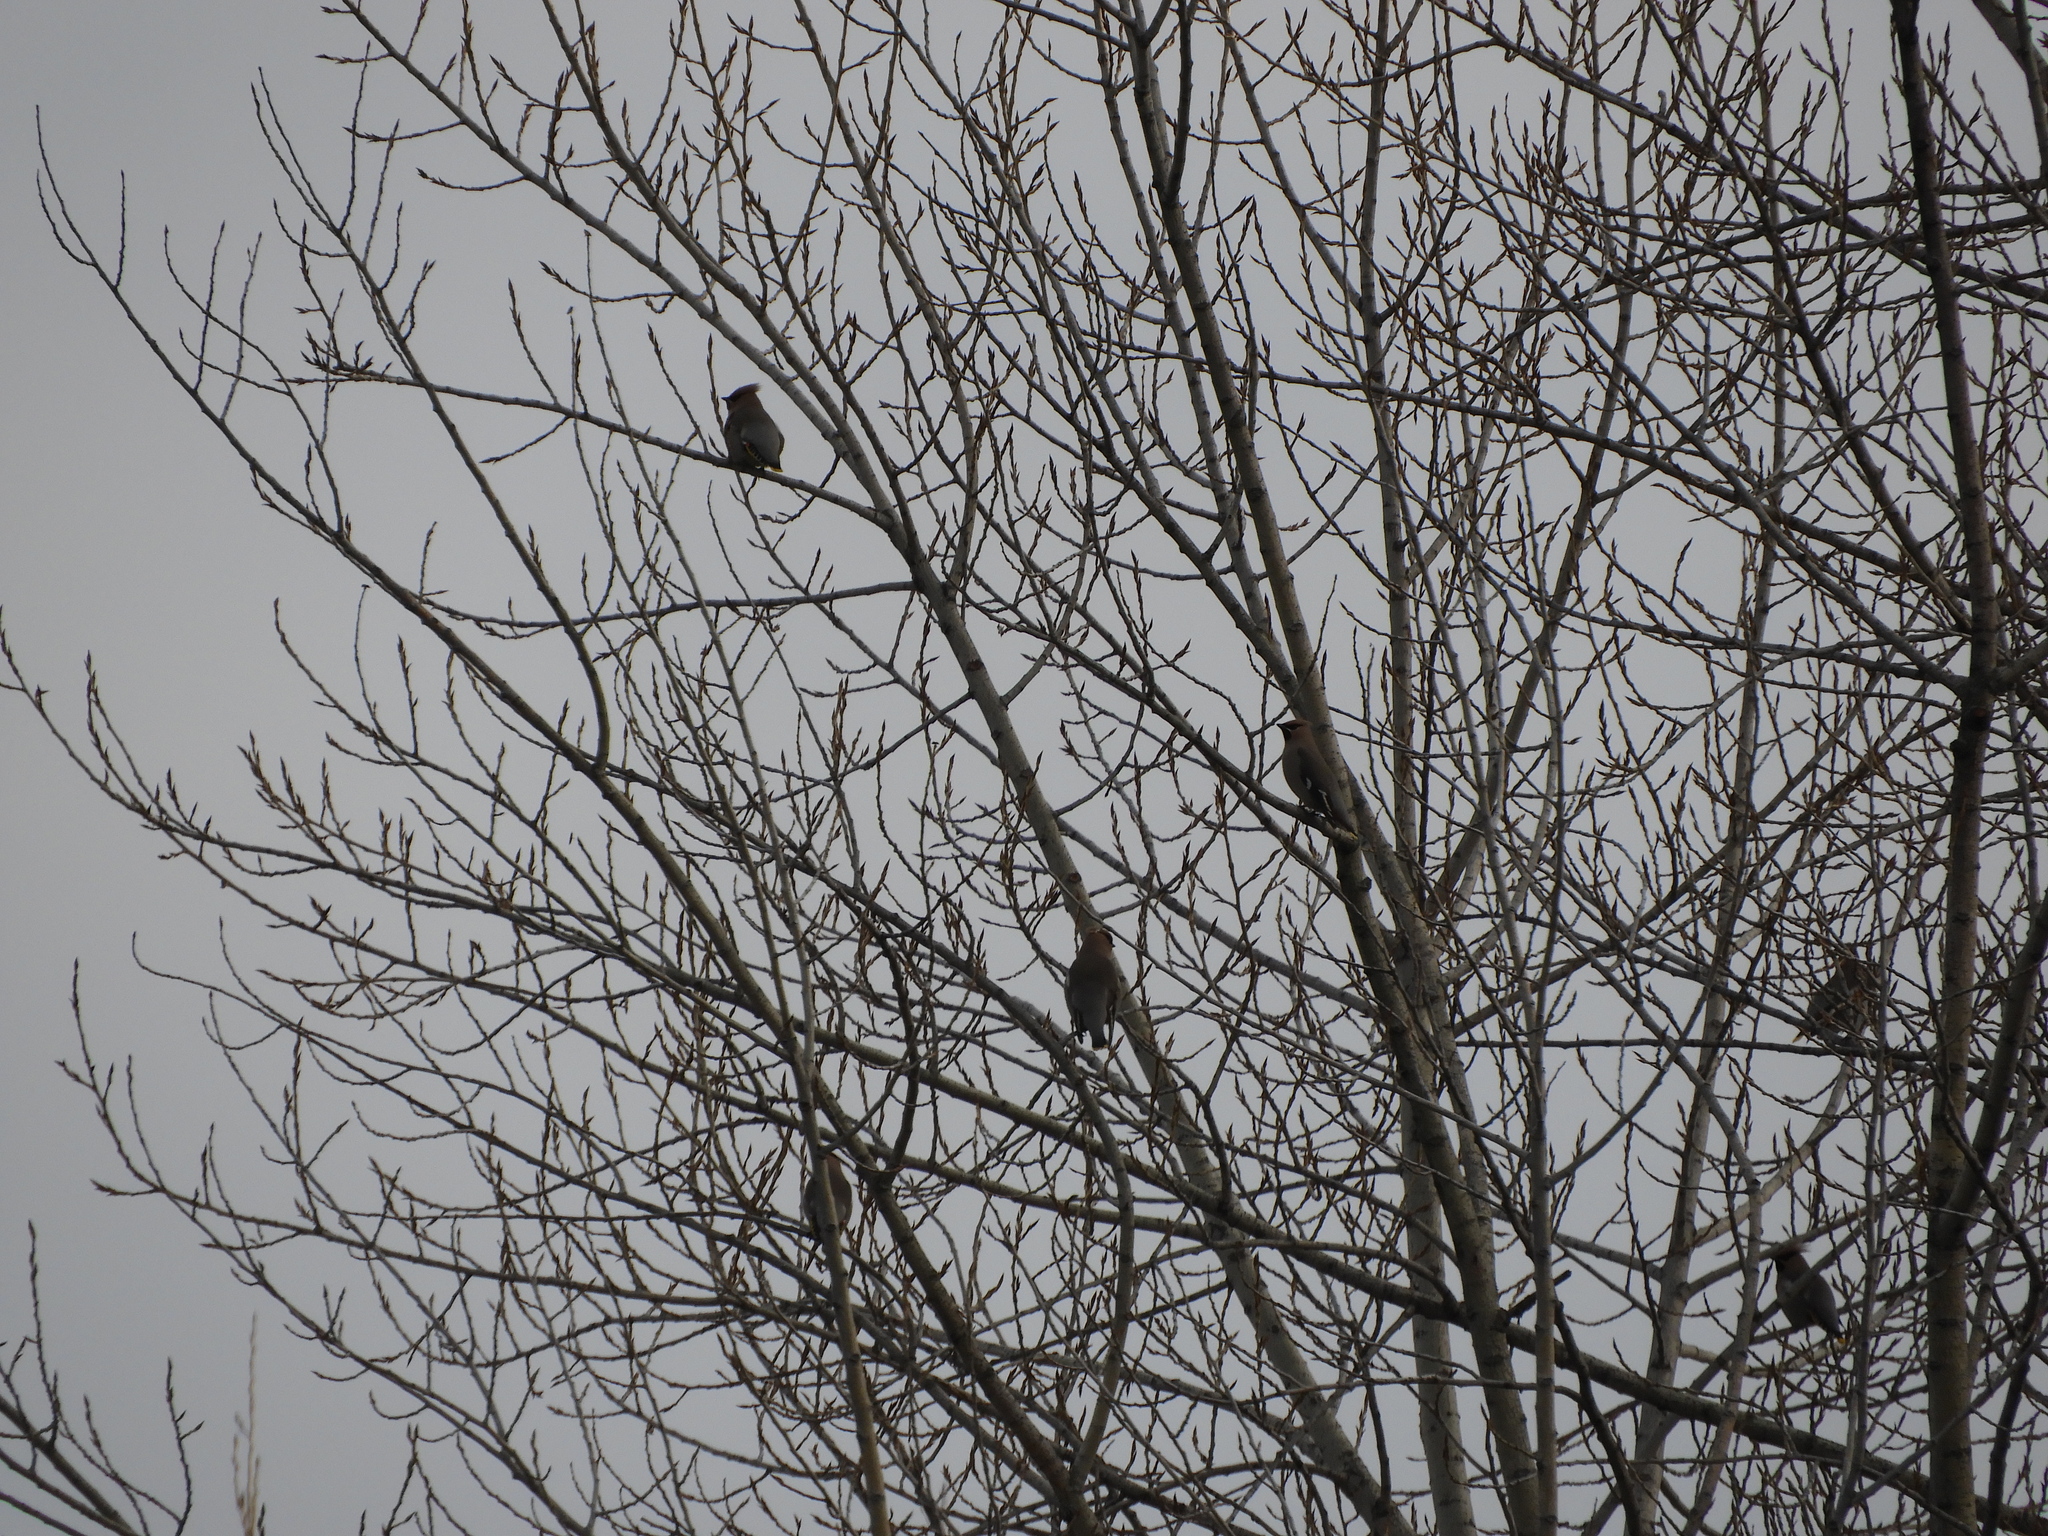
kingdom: Animalia
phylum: Chordata
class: Aves
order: Passeriformes
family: Bombycillidae
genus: Bombycilla
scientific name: Bombycilla garrulus
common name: Bohemian waxwing
